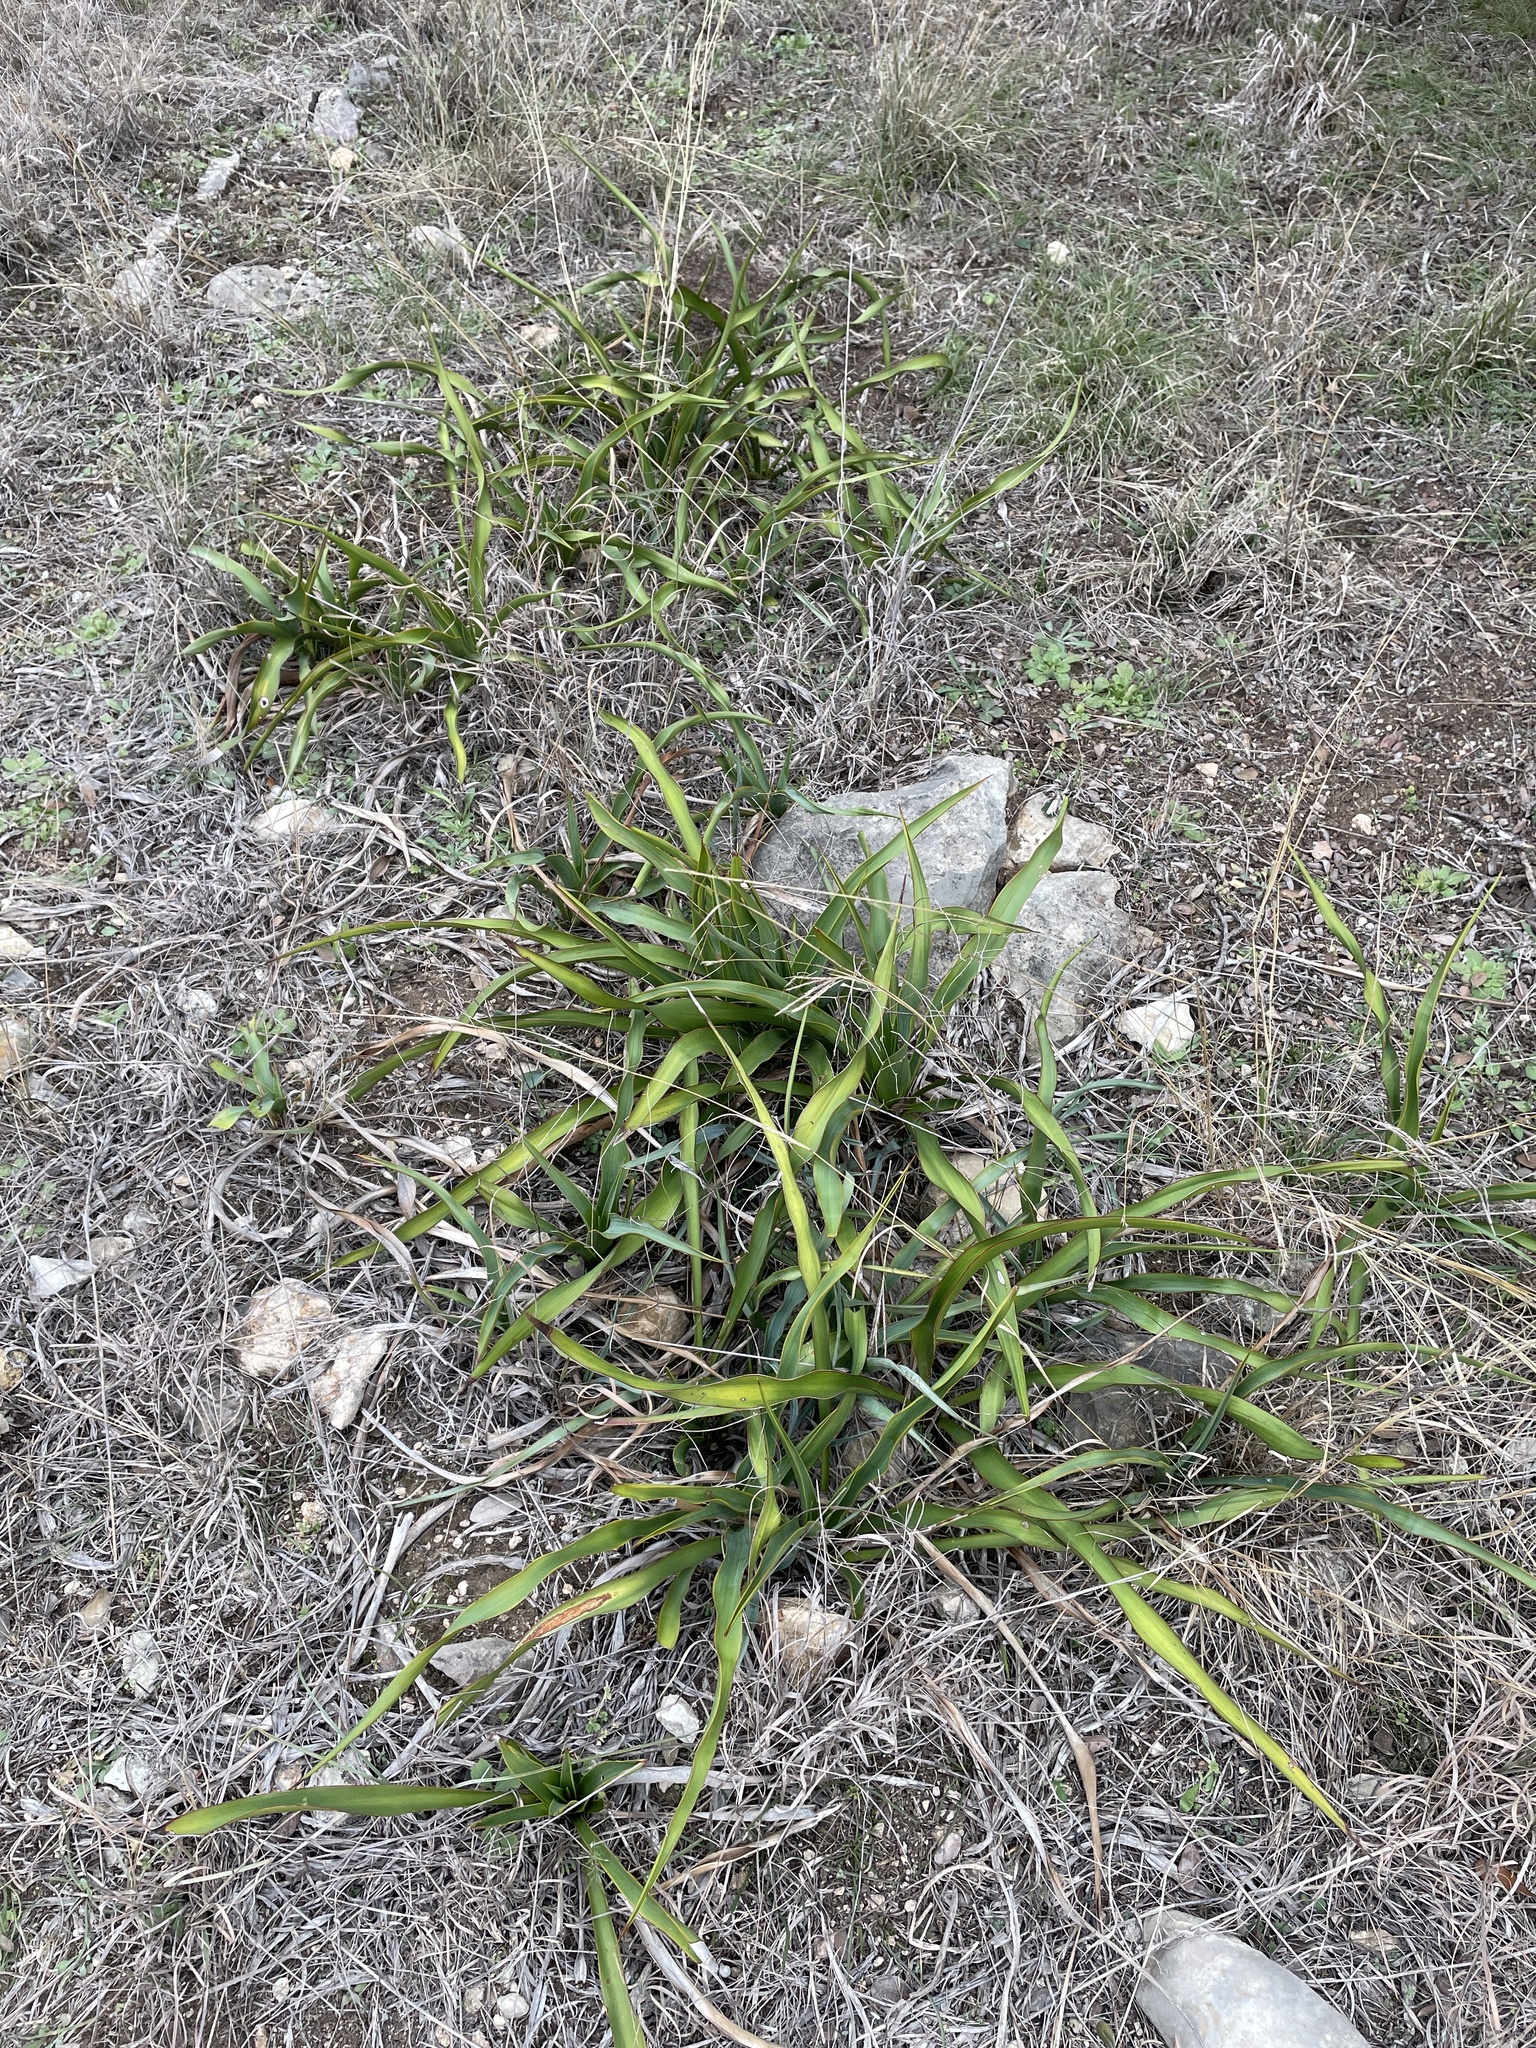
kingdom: Plantae
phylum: Tracheophyta
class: Liliopsida
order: Asparagales
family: Asparagaceae
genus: Yucca
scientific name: Yucca rupicola
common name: Twisted-leaf spanish-dagger
